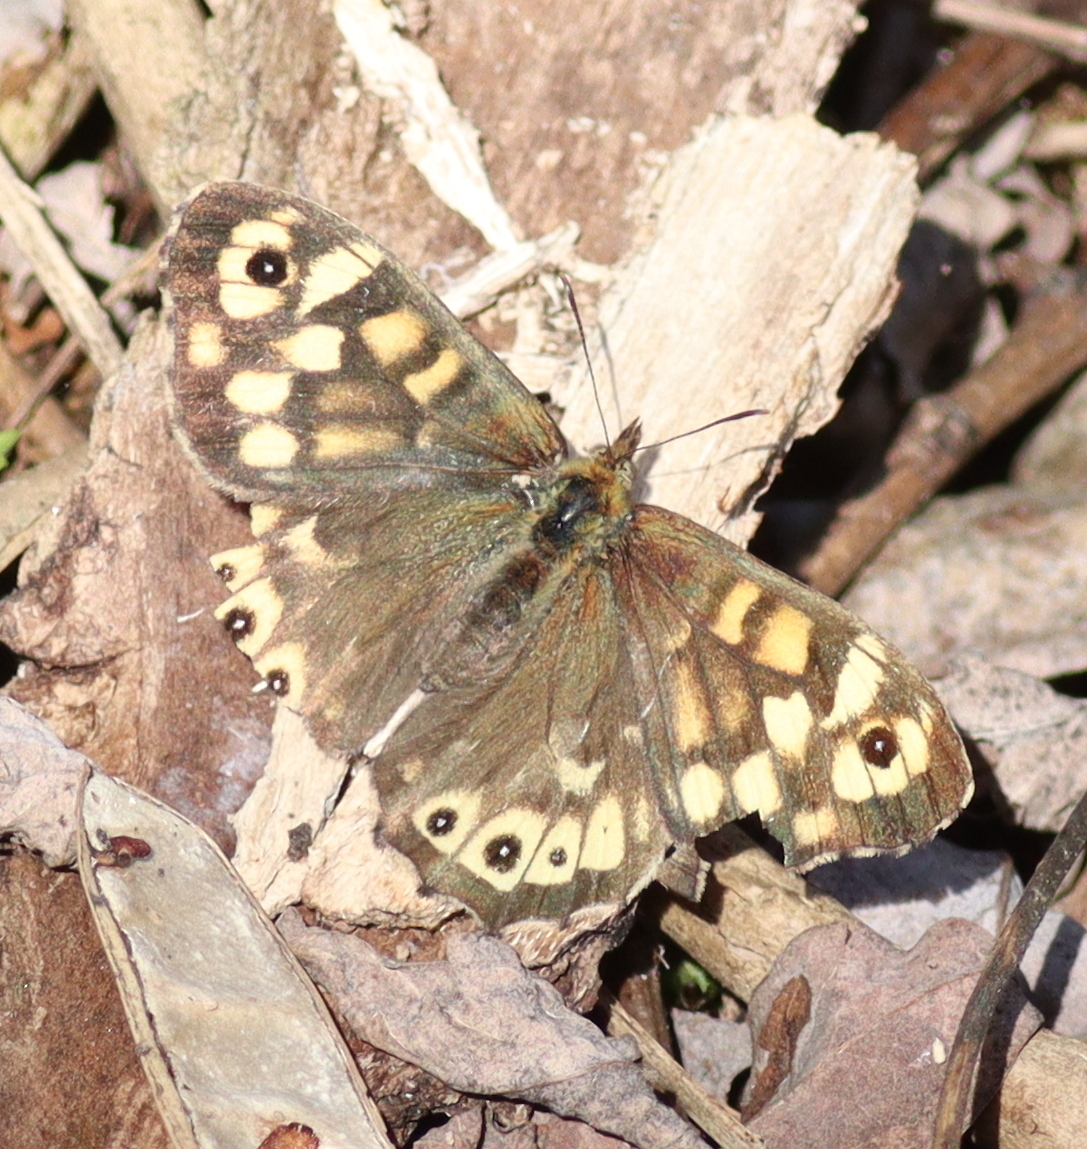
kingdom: Animalia
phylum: Arthropoda
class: Insecta
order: Lepidoptera
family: Nymphalidae
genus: Pararge
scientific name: Pararge aegeria
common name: Speckled wood
